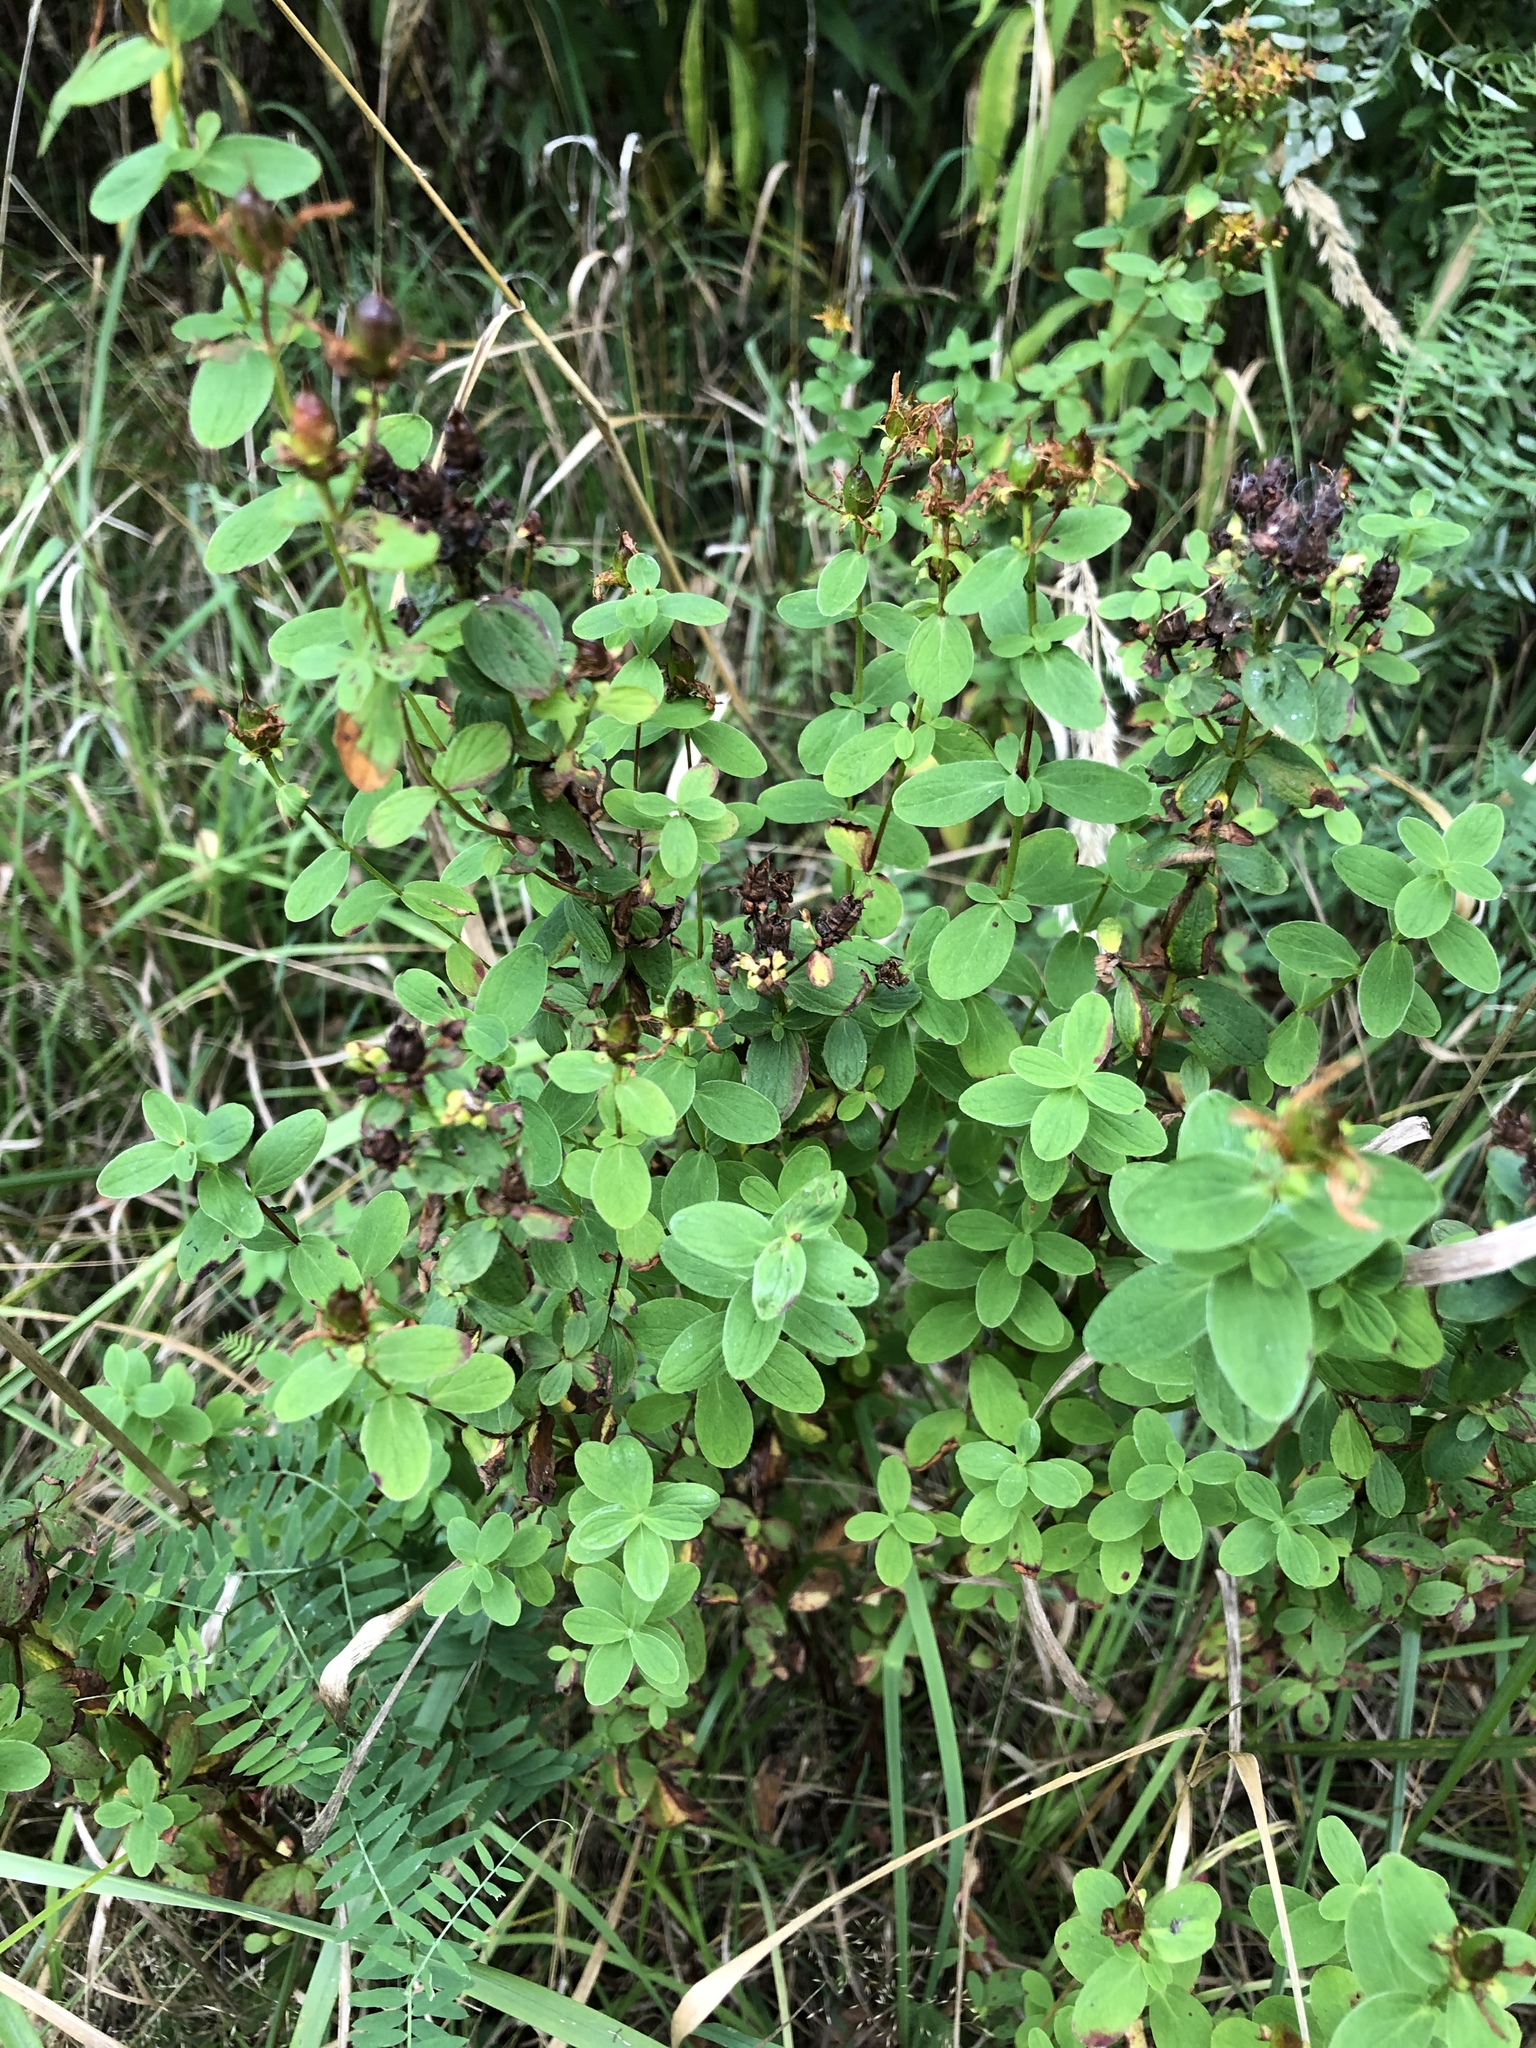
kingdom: Plantae
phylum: Tracheophyta
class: Magnoliopsida
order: Malpighiales
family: Hypericaceae
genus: Hypericum
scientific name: Hypericum maculatum
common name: Imperforate st. john's-wort
